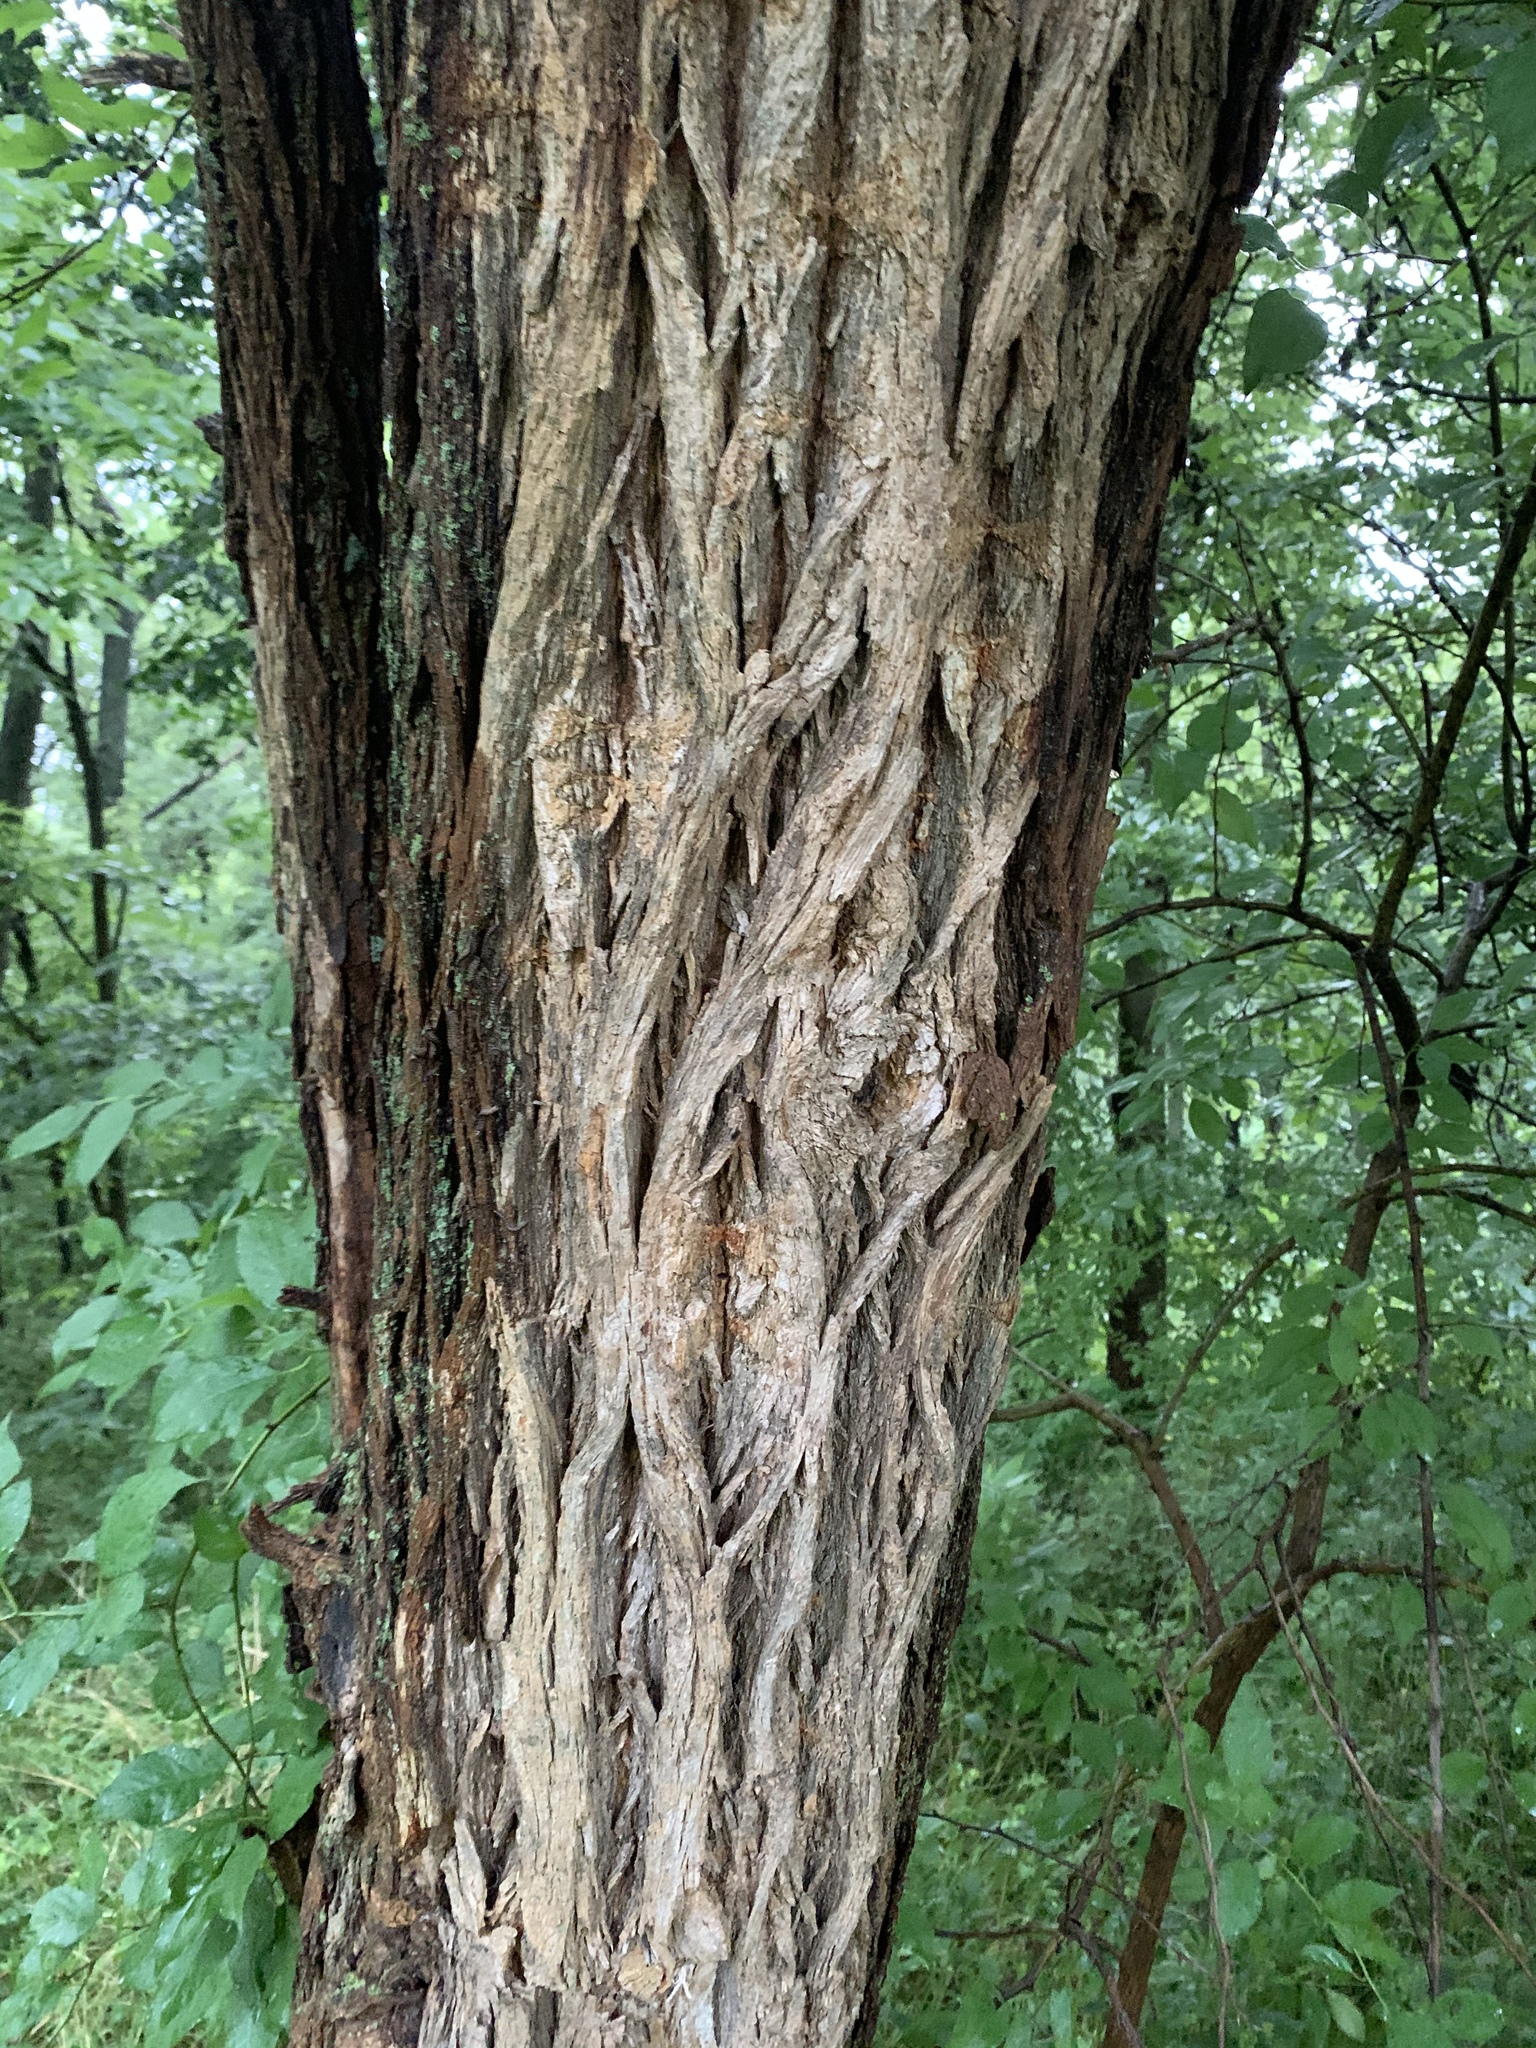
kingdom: Plantae
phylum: Tracheophyta
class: Magnoliopsida
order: Rosales
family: Moraceae
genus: Maclura
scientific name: Maclura pomifera
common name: Osage-orange
